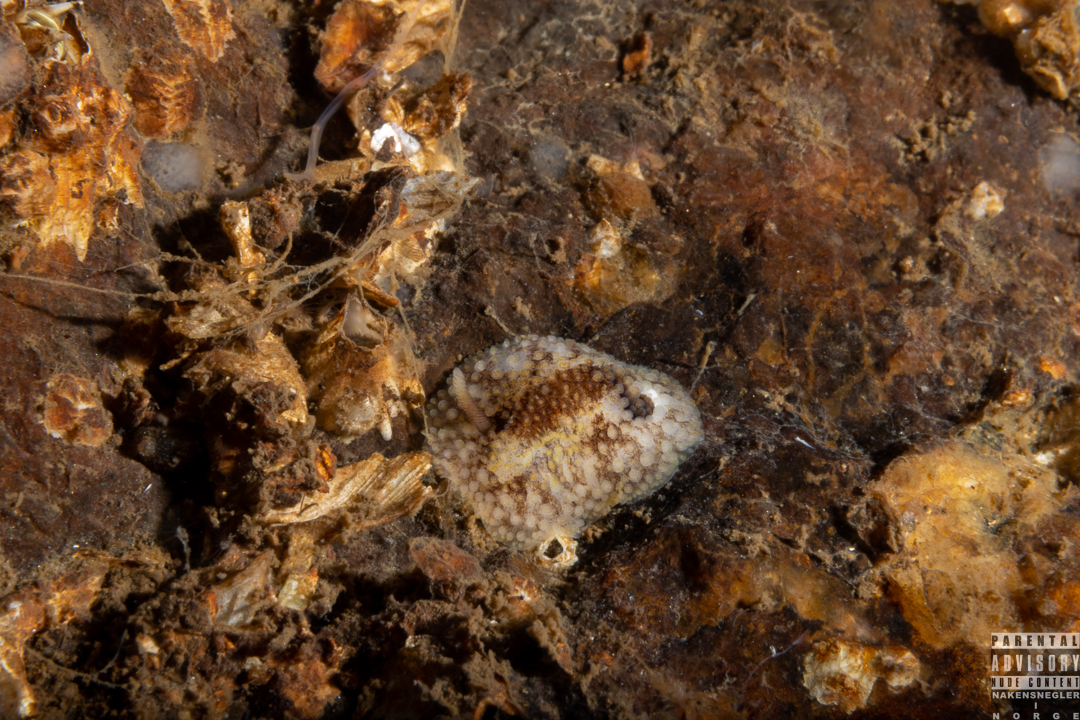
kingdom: Animalia
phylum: Mollusca
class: Gastropoda
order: Nudibranchia
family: Onchidorididae
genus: Onchidoris
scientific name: Onchidoris bilamellata
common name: Barnacle-eating onchidoris
